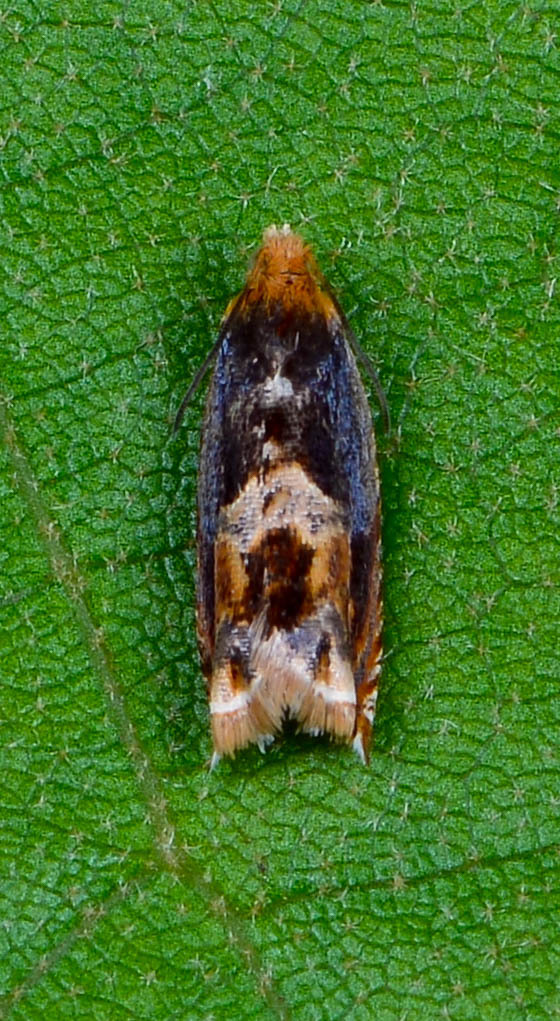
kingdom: Animalia
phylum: Arthropoda
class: Insecta
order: Lepidoptera
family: Tortricidae
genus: Ancylis
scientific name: Ancylis muricana
